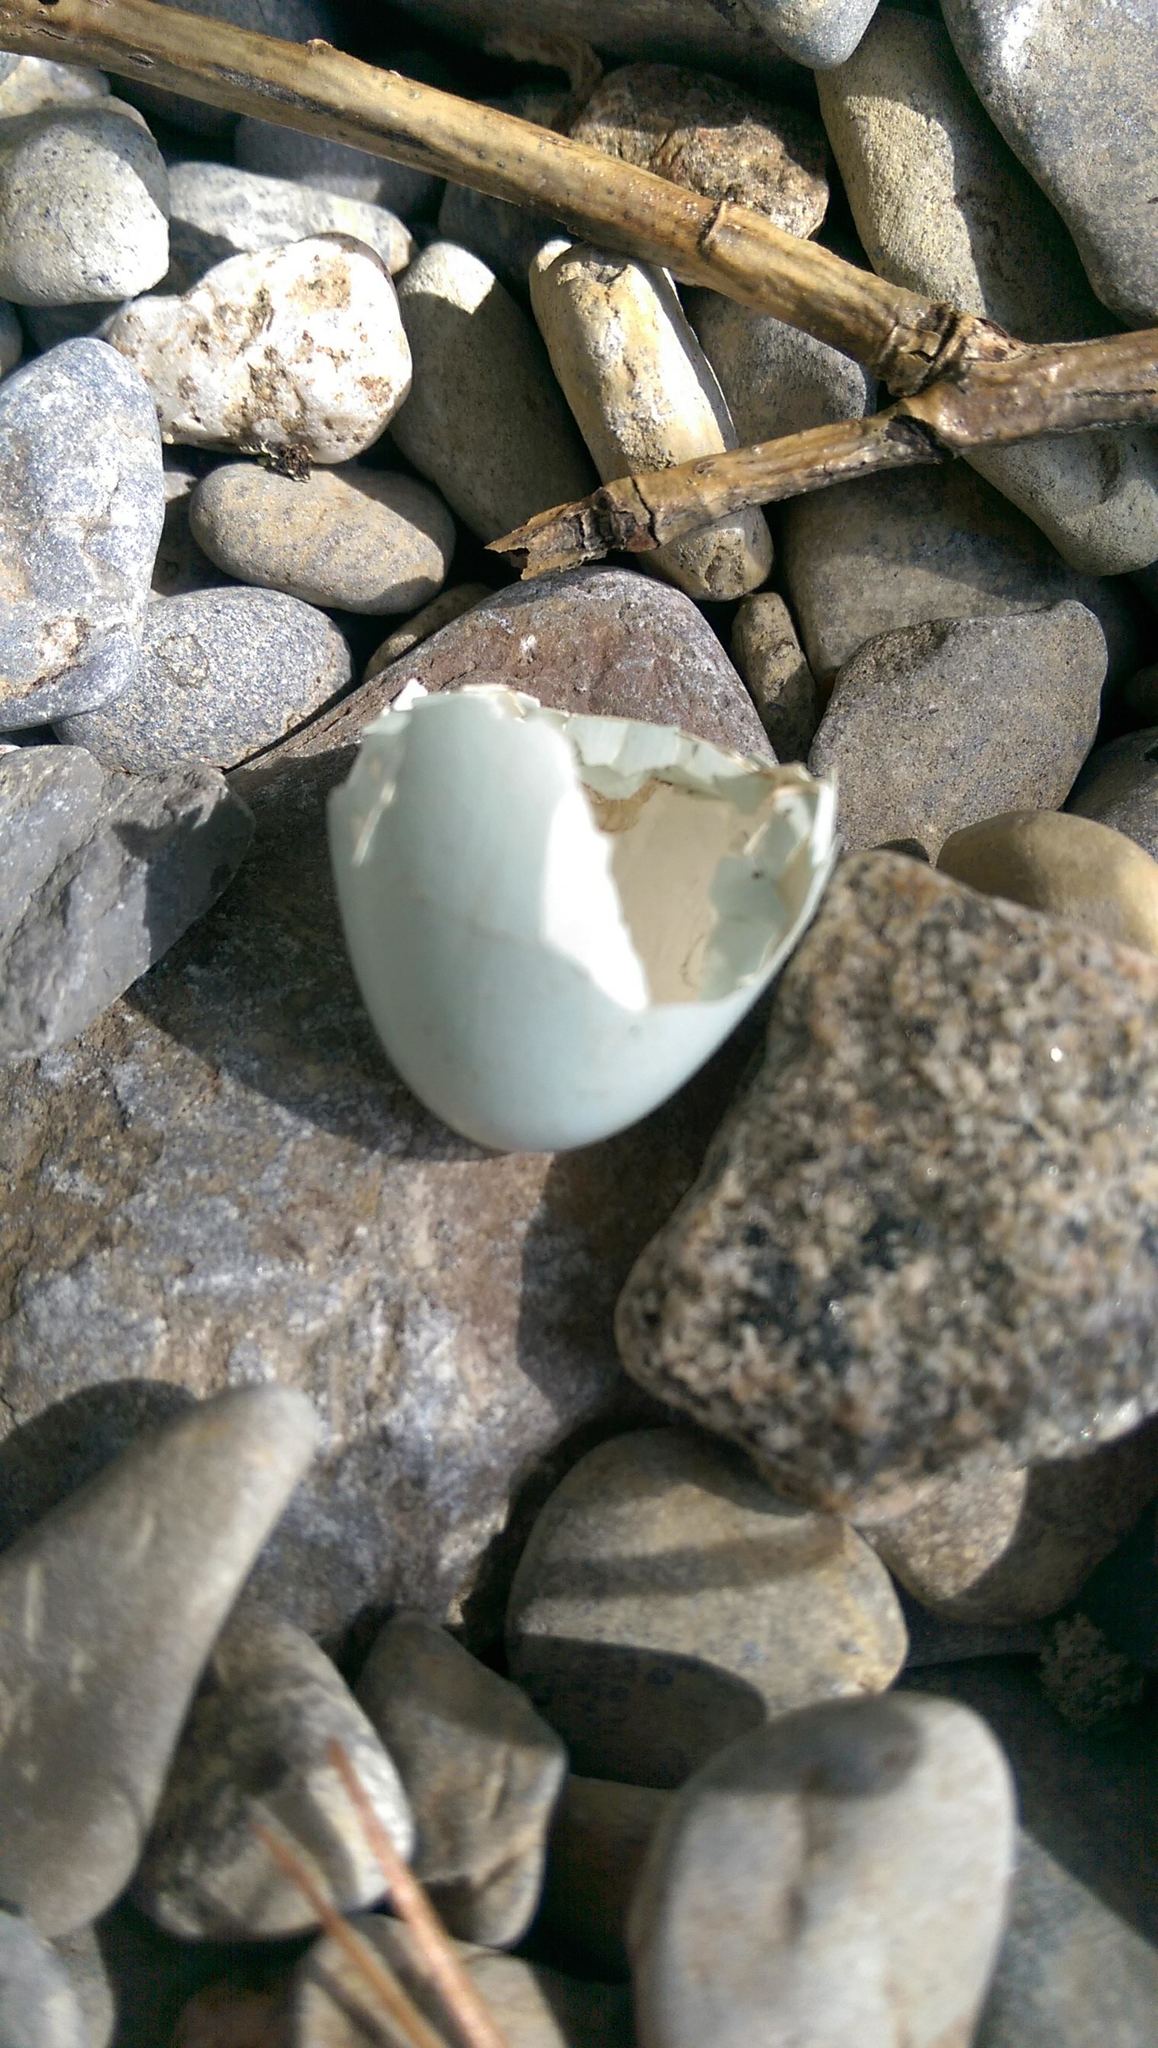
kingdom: Animalia
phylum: Chordata
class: Aves
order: Passeriformes
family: Turdidae
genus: Turdus
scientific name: Turdus migratorius
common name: American robin
